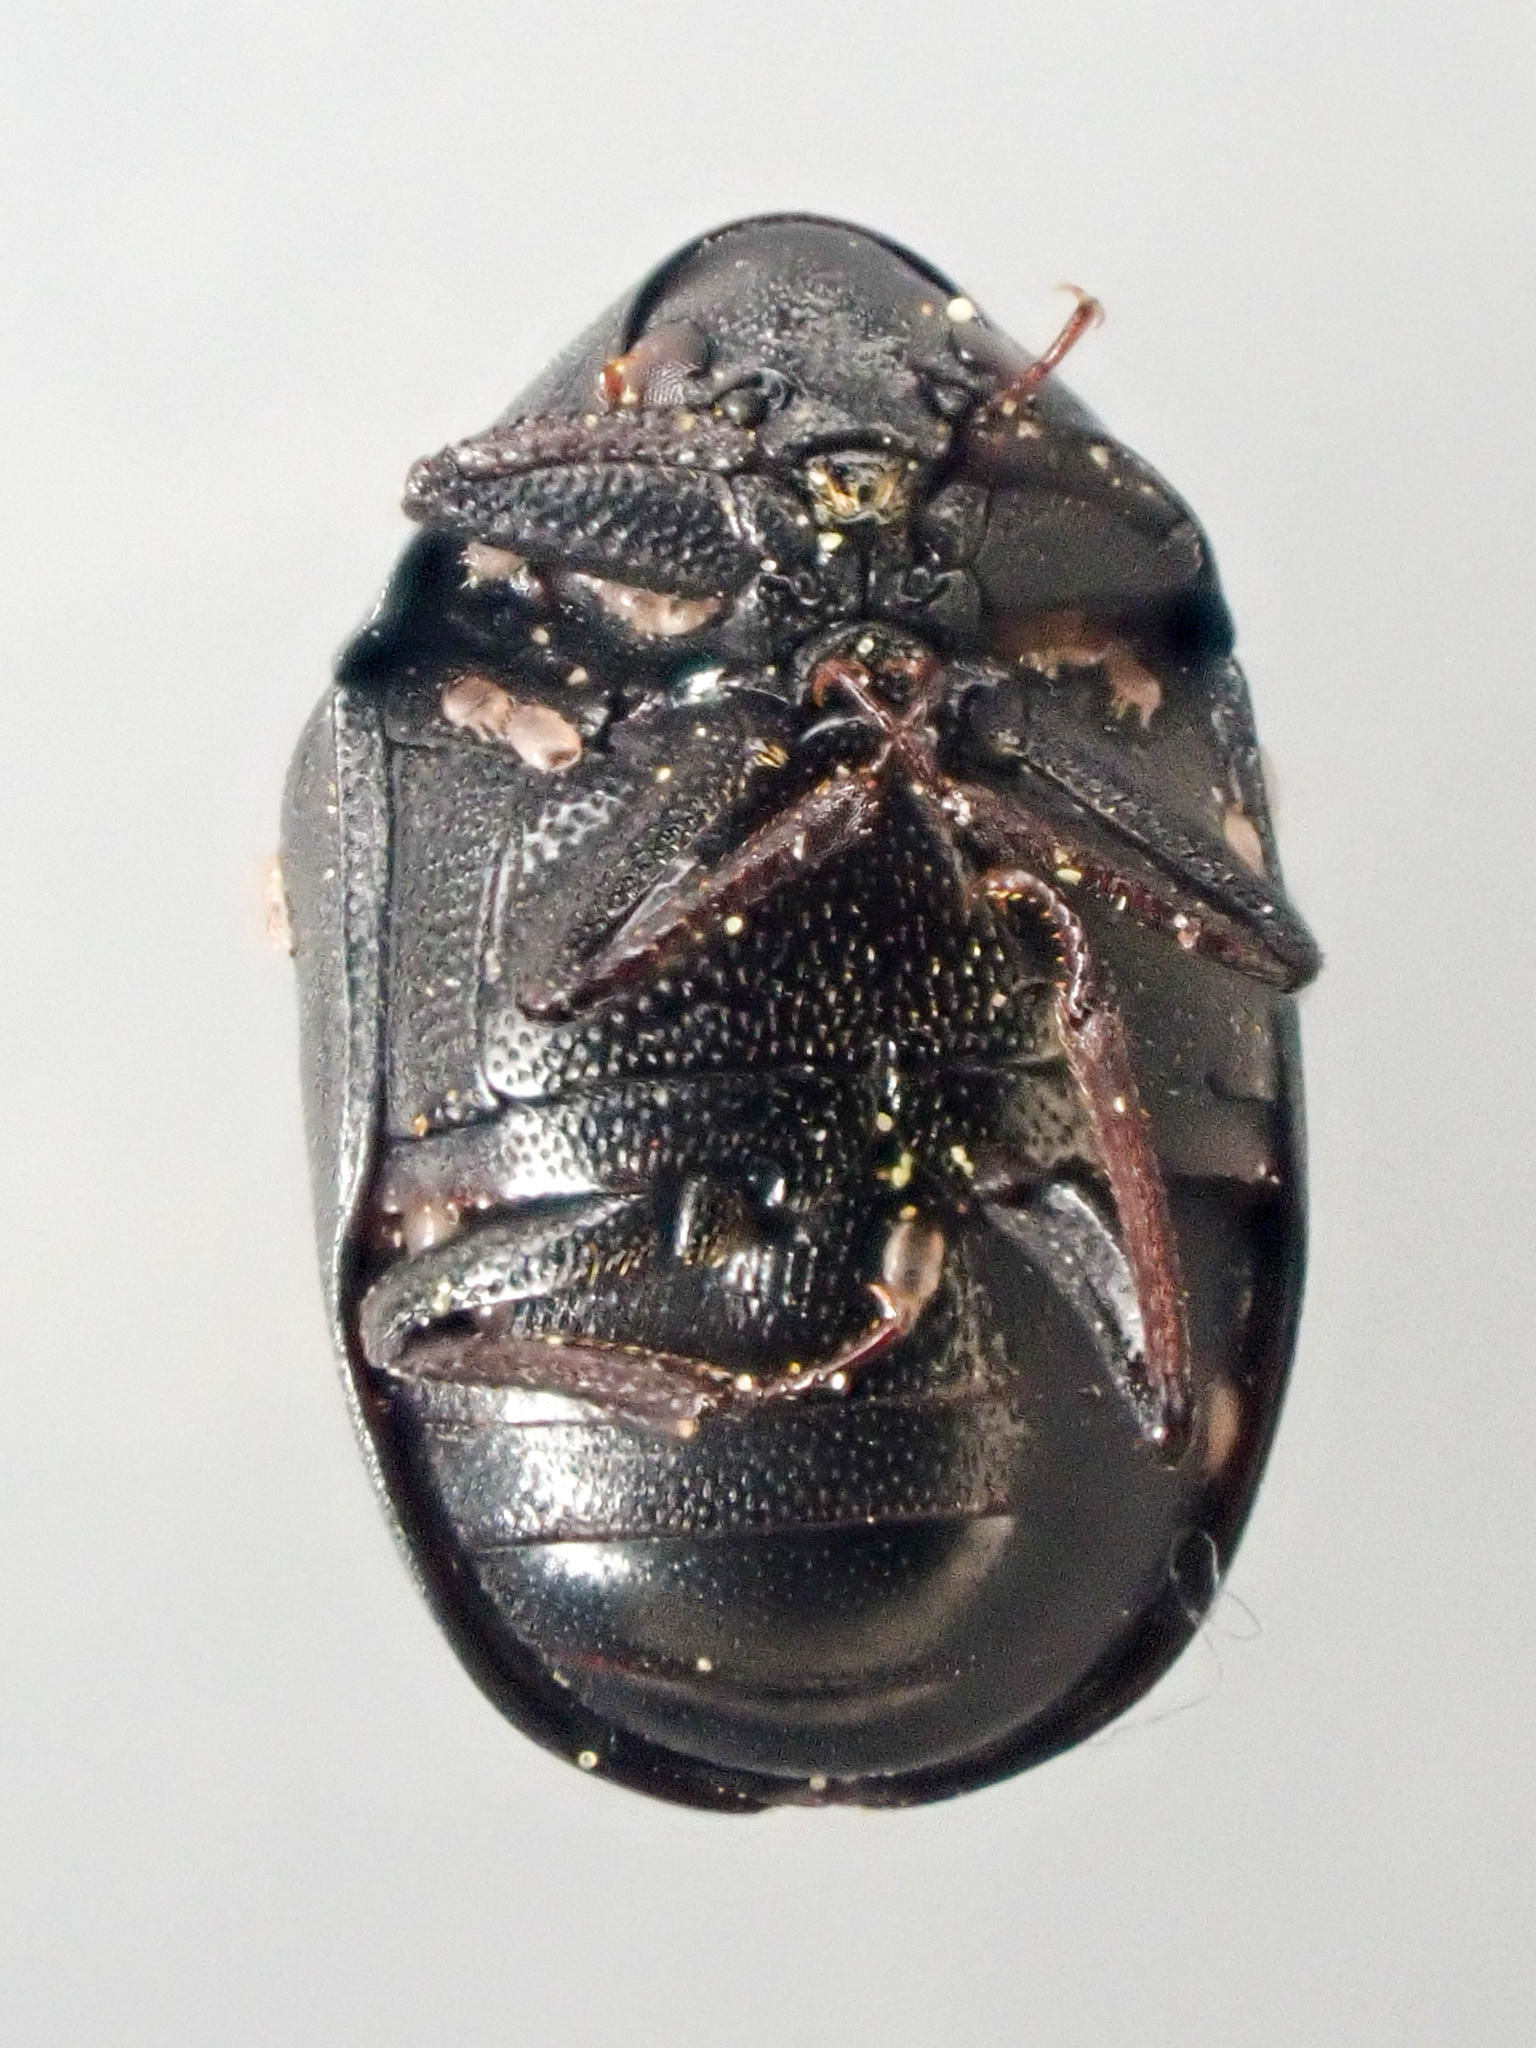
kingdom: Animalia
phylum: Arthropoda
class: Insecta
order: Coleoptera
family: Dermestidae
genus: Orphilus
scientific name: Orphilus subnitidus
